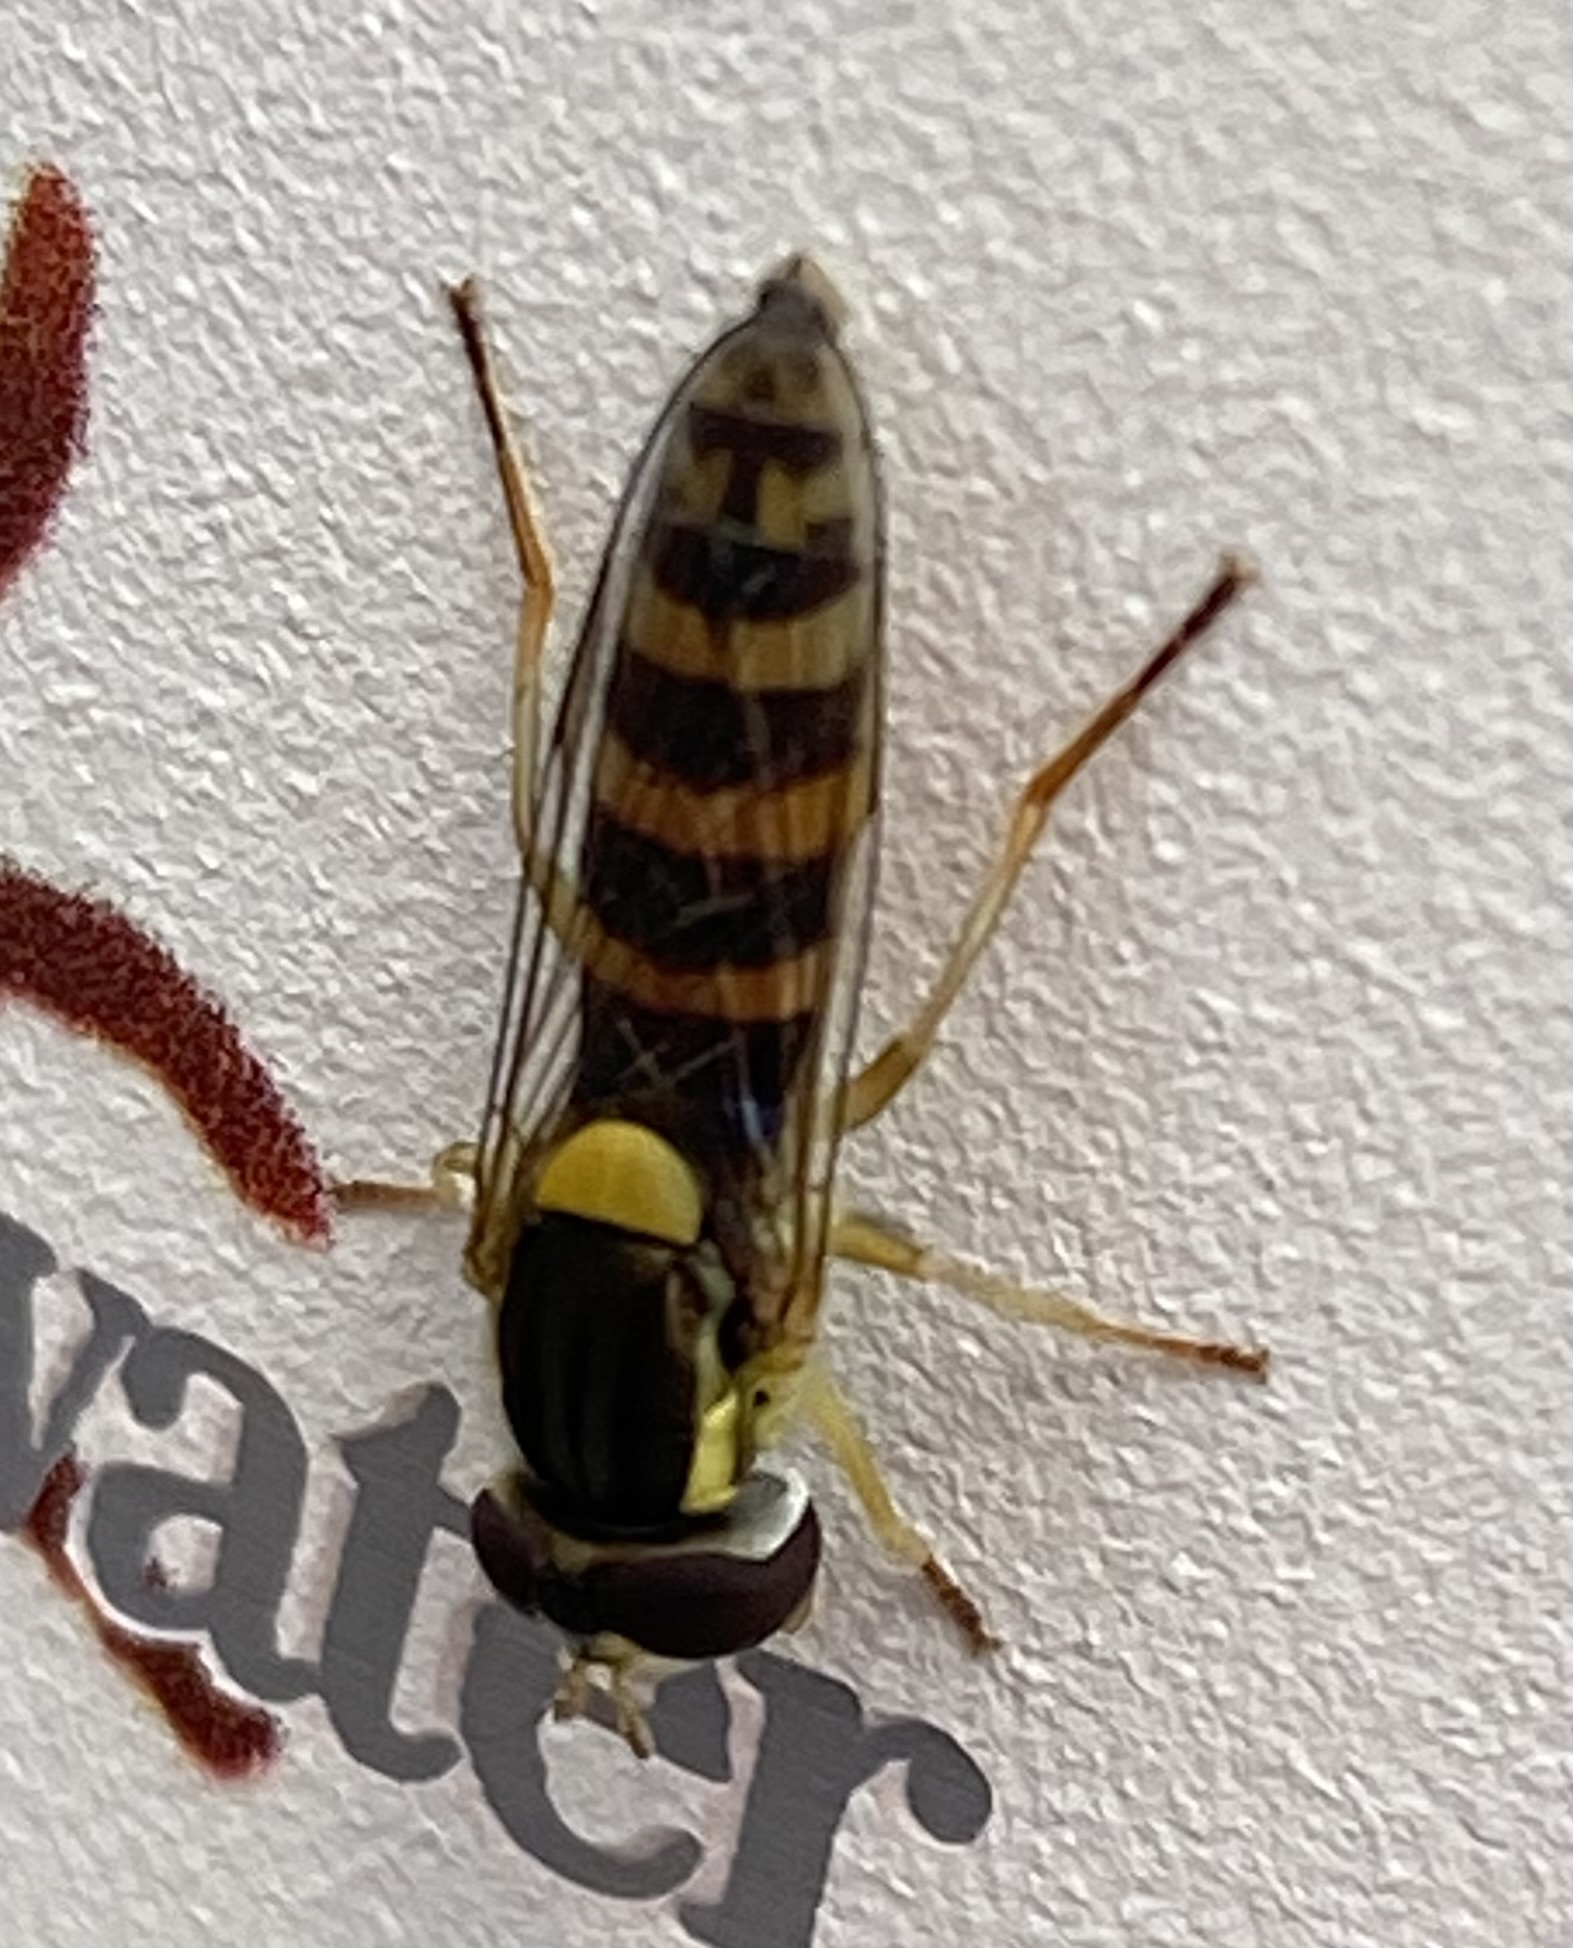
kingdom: Animalia
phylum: Arthropoda
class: Insecta
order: Diptera
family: Syrphidae
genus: Sphaerophoria
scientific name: Sphaerophoria
